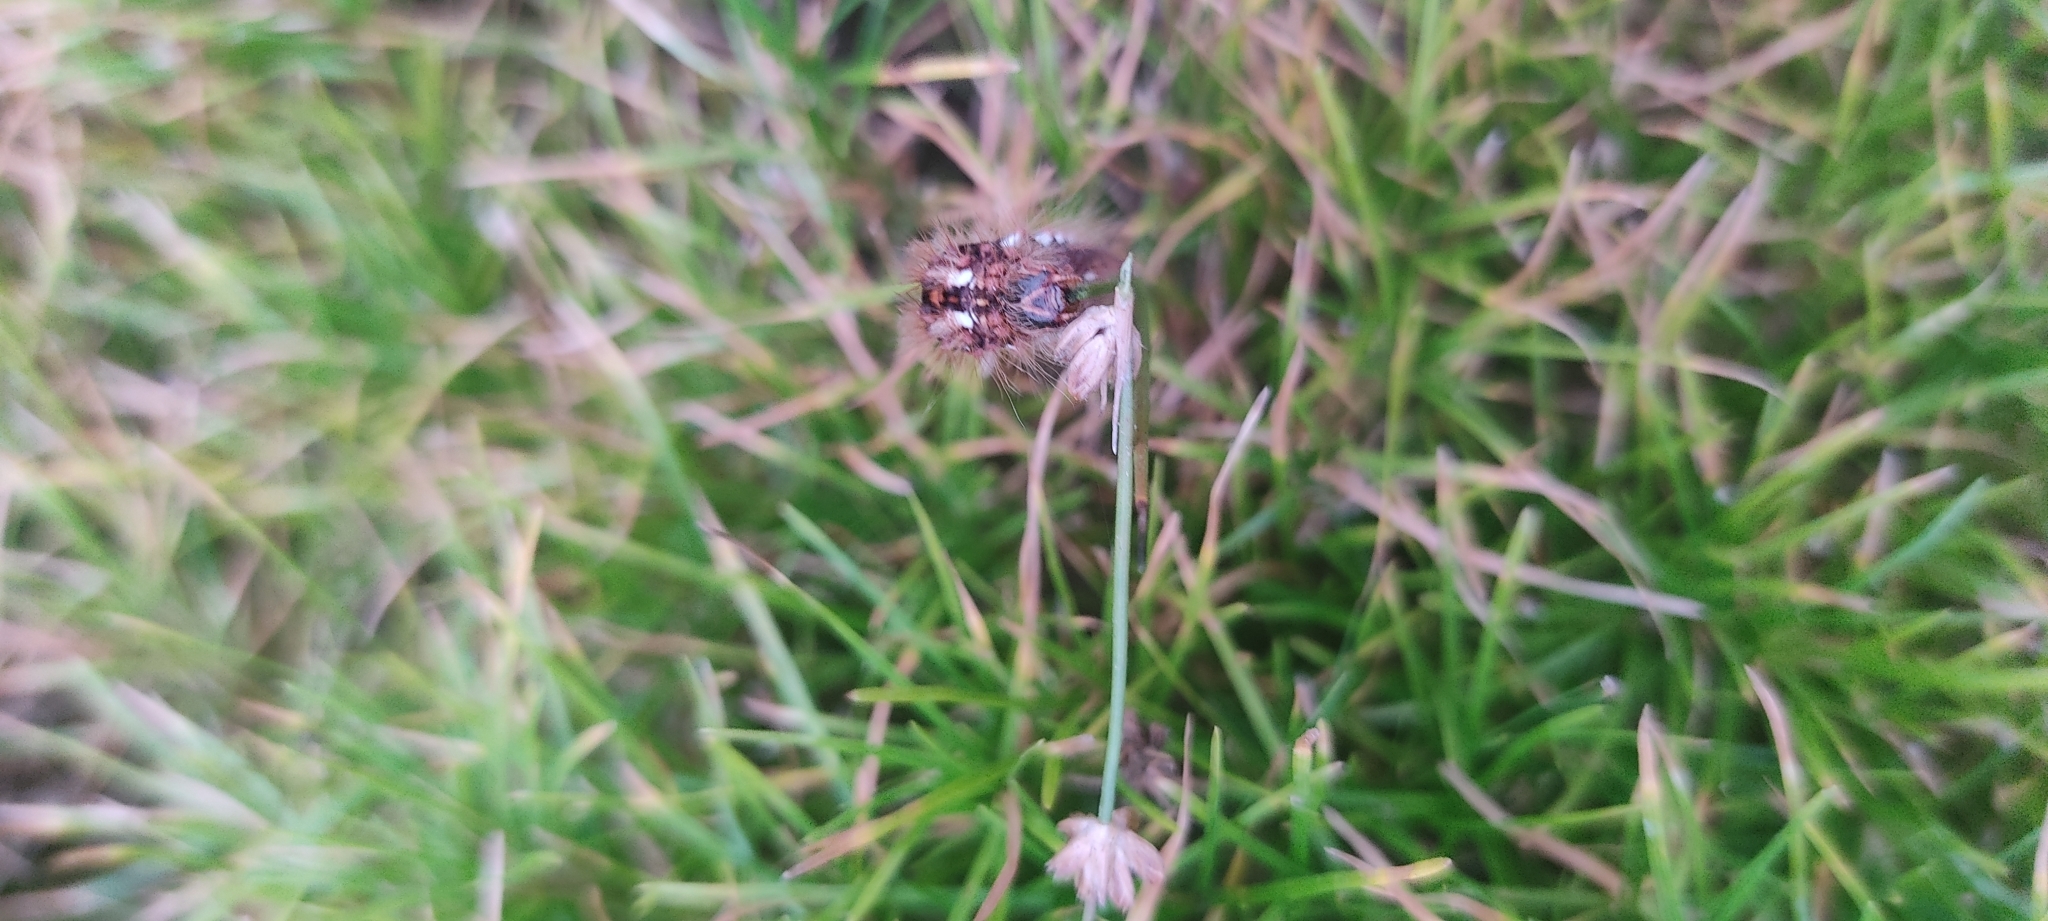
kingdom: Animalia
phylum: Arthropoda
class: Insecta
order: Lepidoptera
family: Noctuidae
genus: Acronicta
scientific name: Acronicta rumicis
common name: Knot grass
